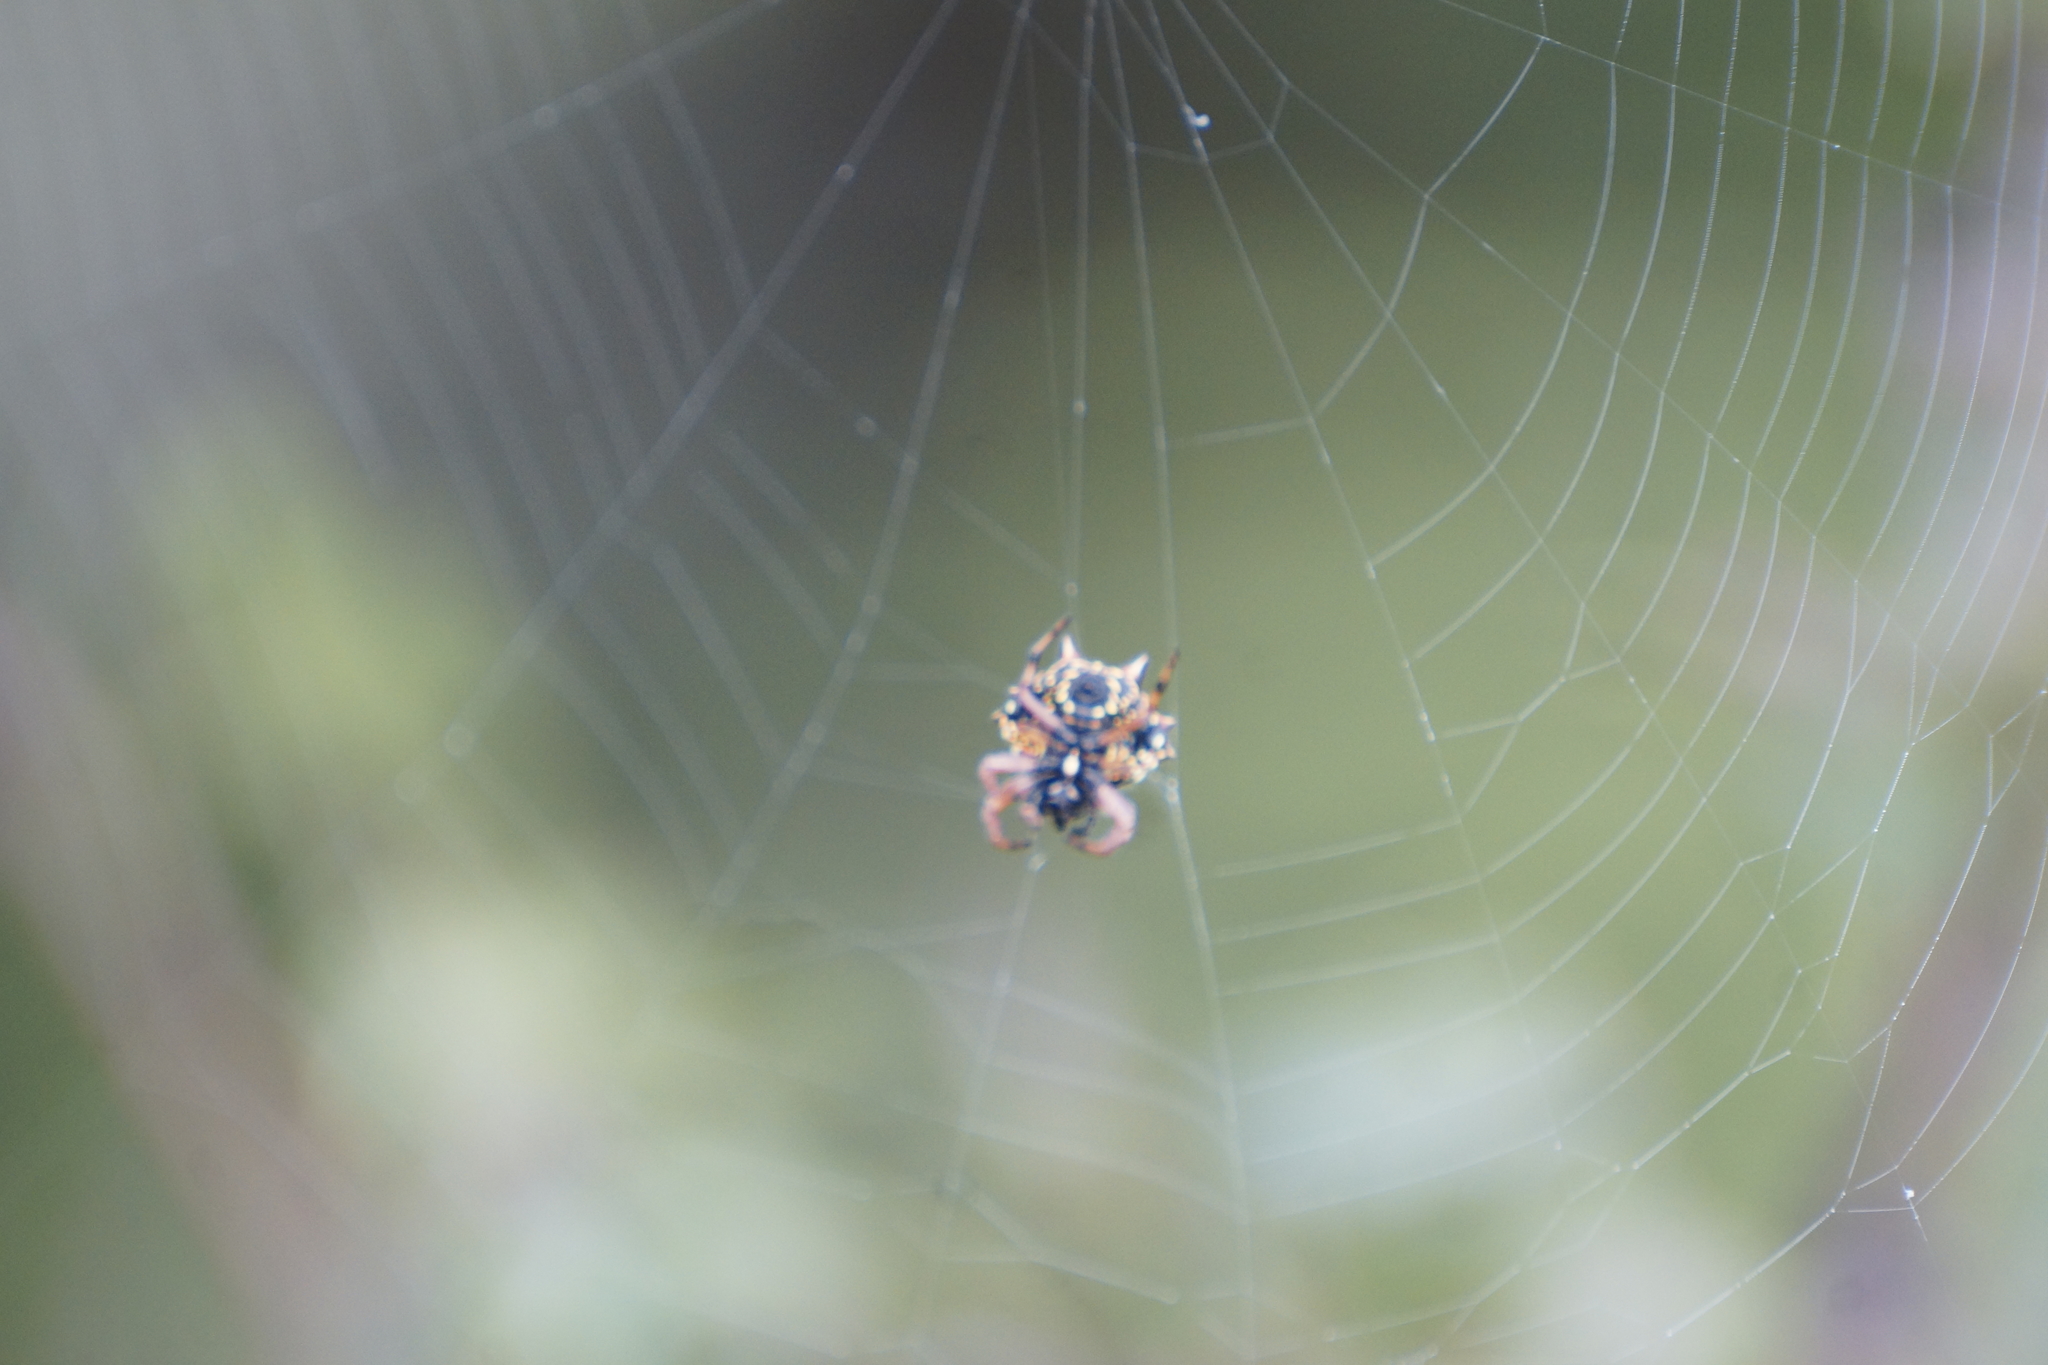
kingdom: Animalia
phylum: Arthropoda
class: Arachnida
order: Araneae
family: Araneidae
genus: Austracantha
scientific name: Austracantha minax
